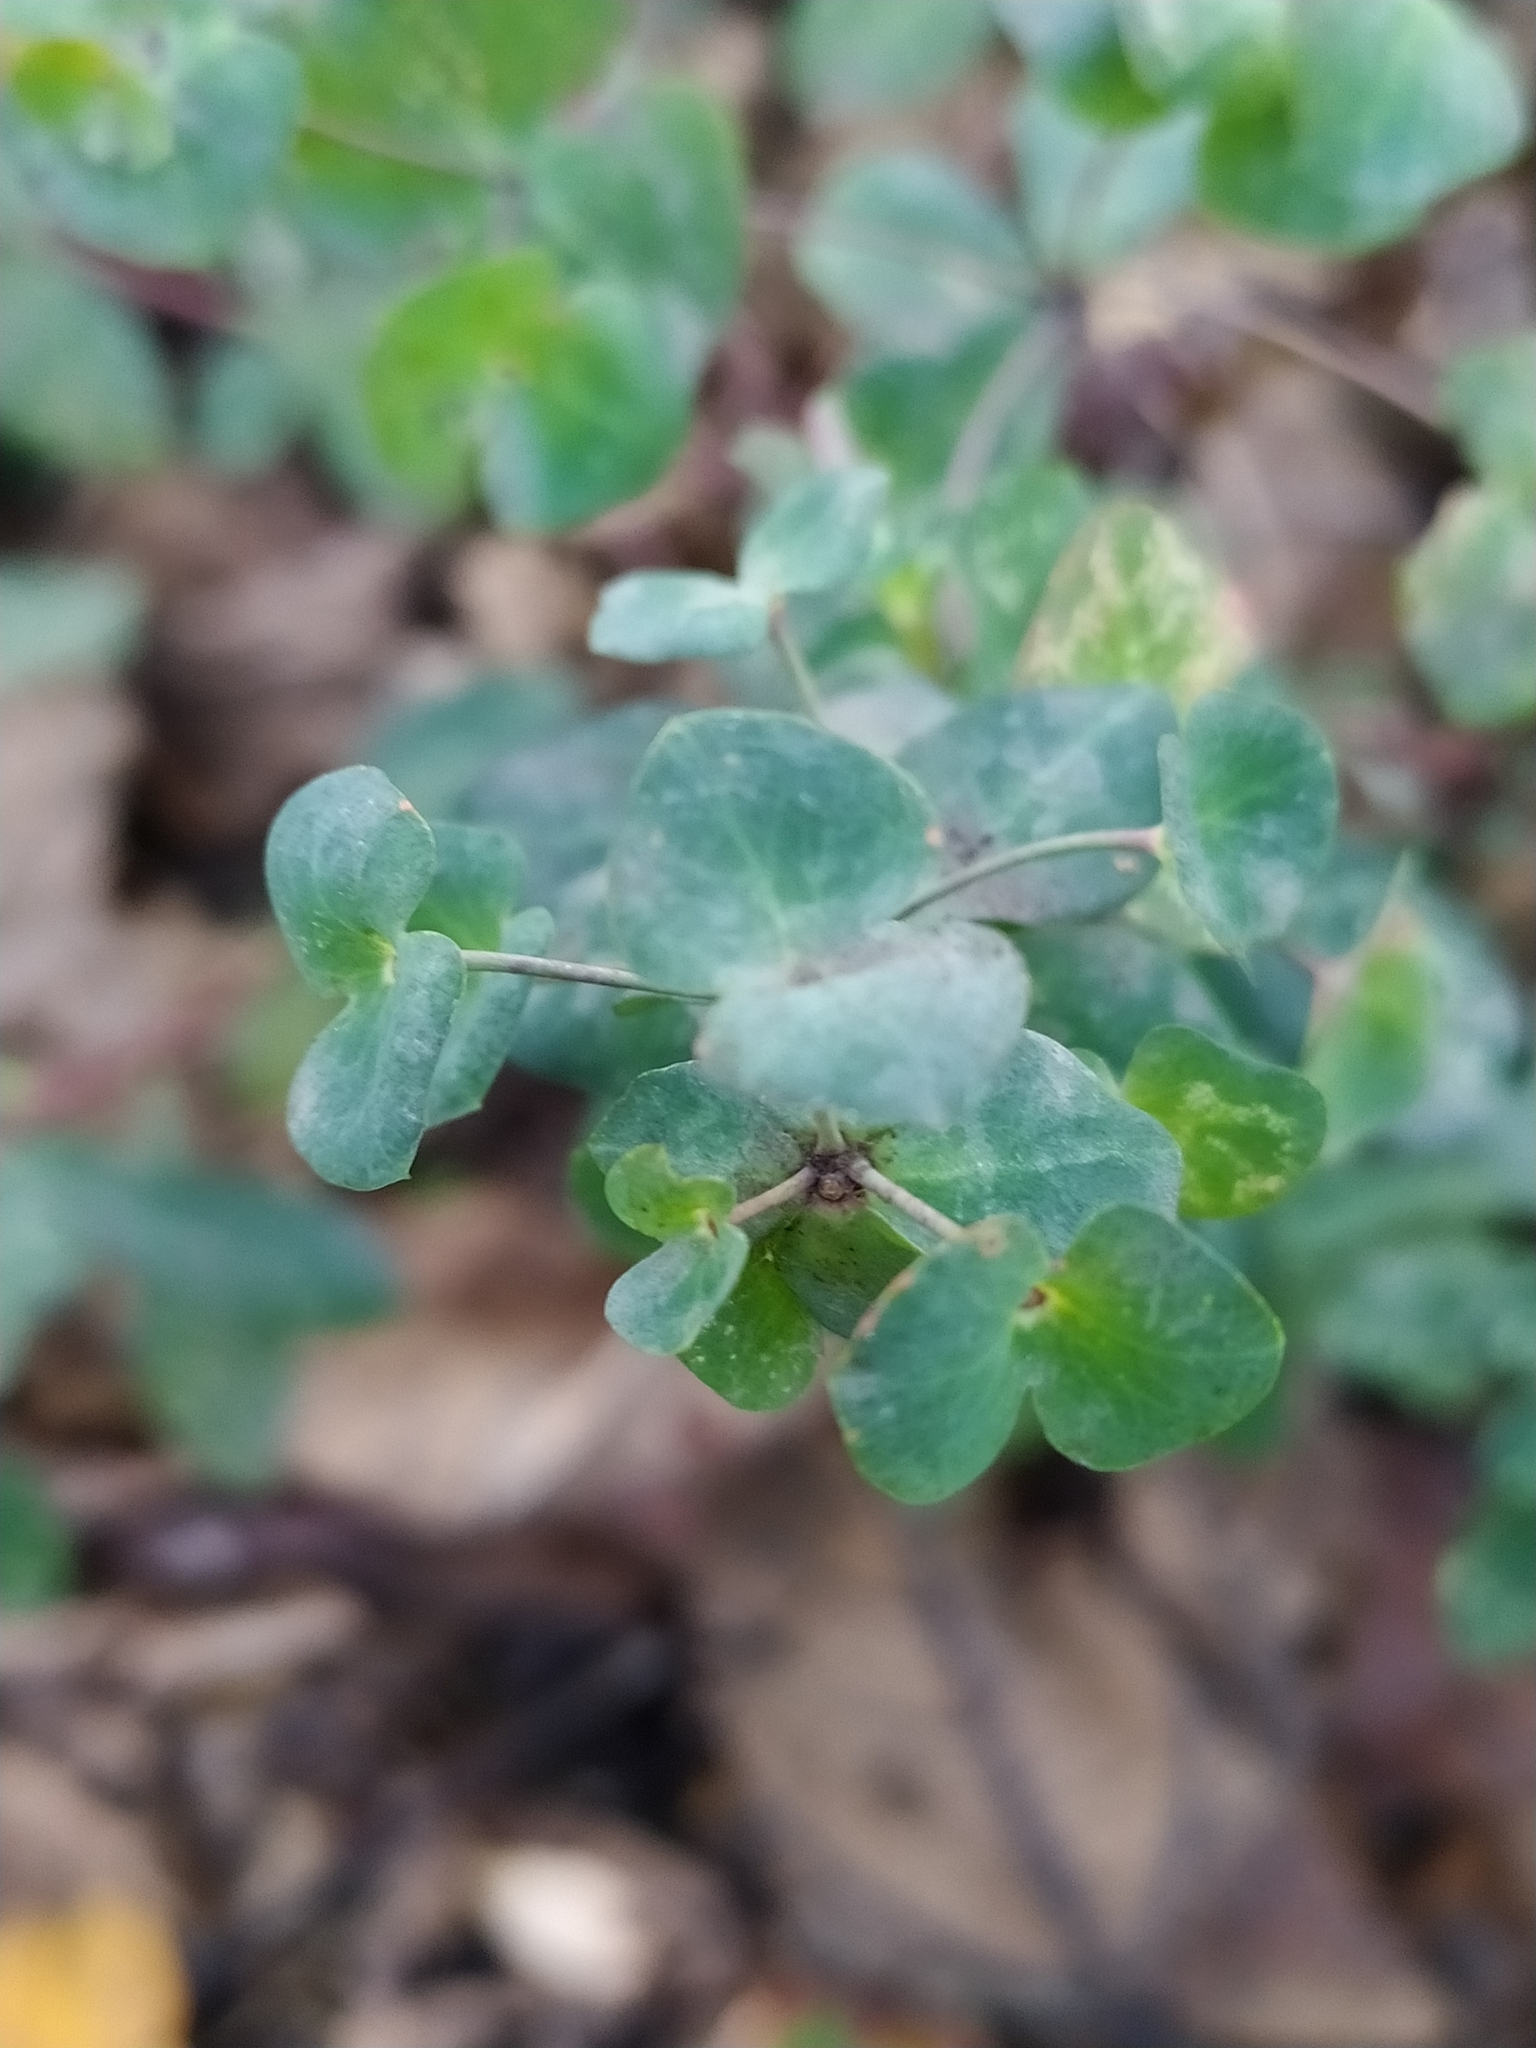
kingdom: Plantae
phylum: Tracheophyta
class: Magnoliopsida
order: Malpighiales
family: Euphorbiaceae
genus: Euphorbia
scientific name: Euphorbia amygdaloides
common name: Wood spurge
